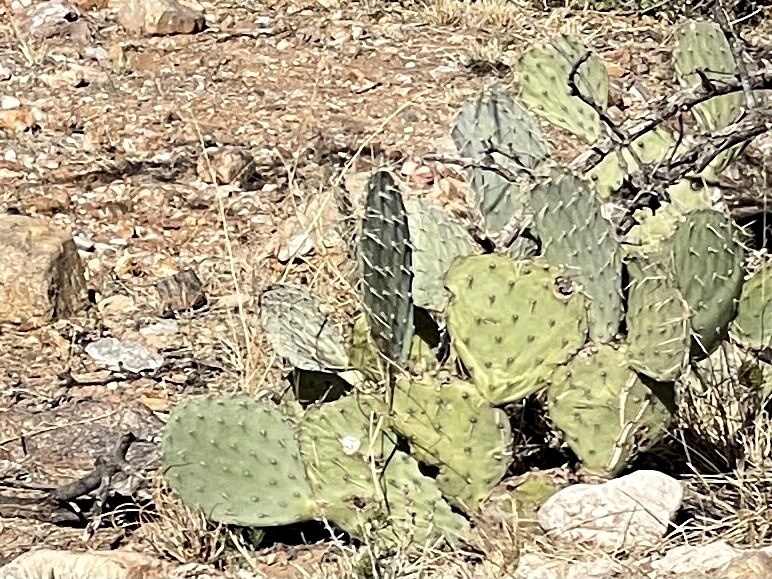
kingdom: Plantae
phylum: Tracheophyta
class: Magnoliopsida
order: Caryophyllales
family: Cactaceae
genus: Opuntia
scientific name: Opuntia engelmannii
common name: Cactus-apple
